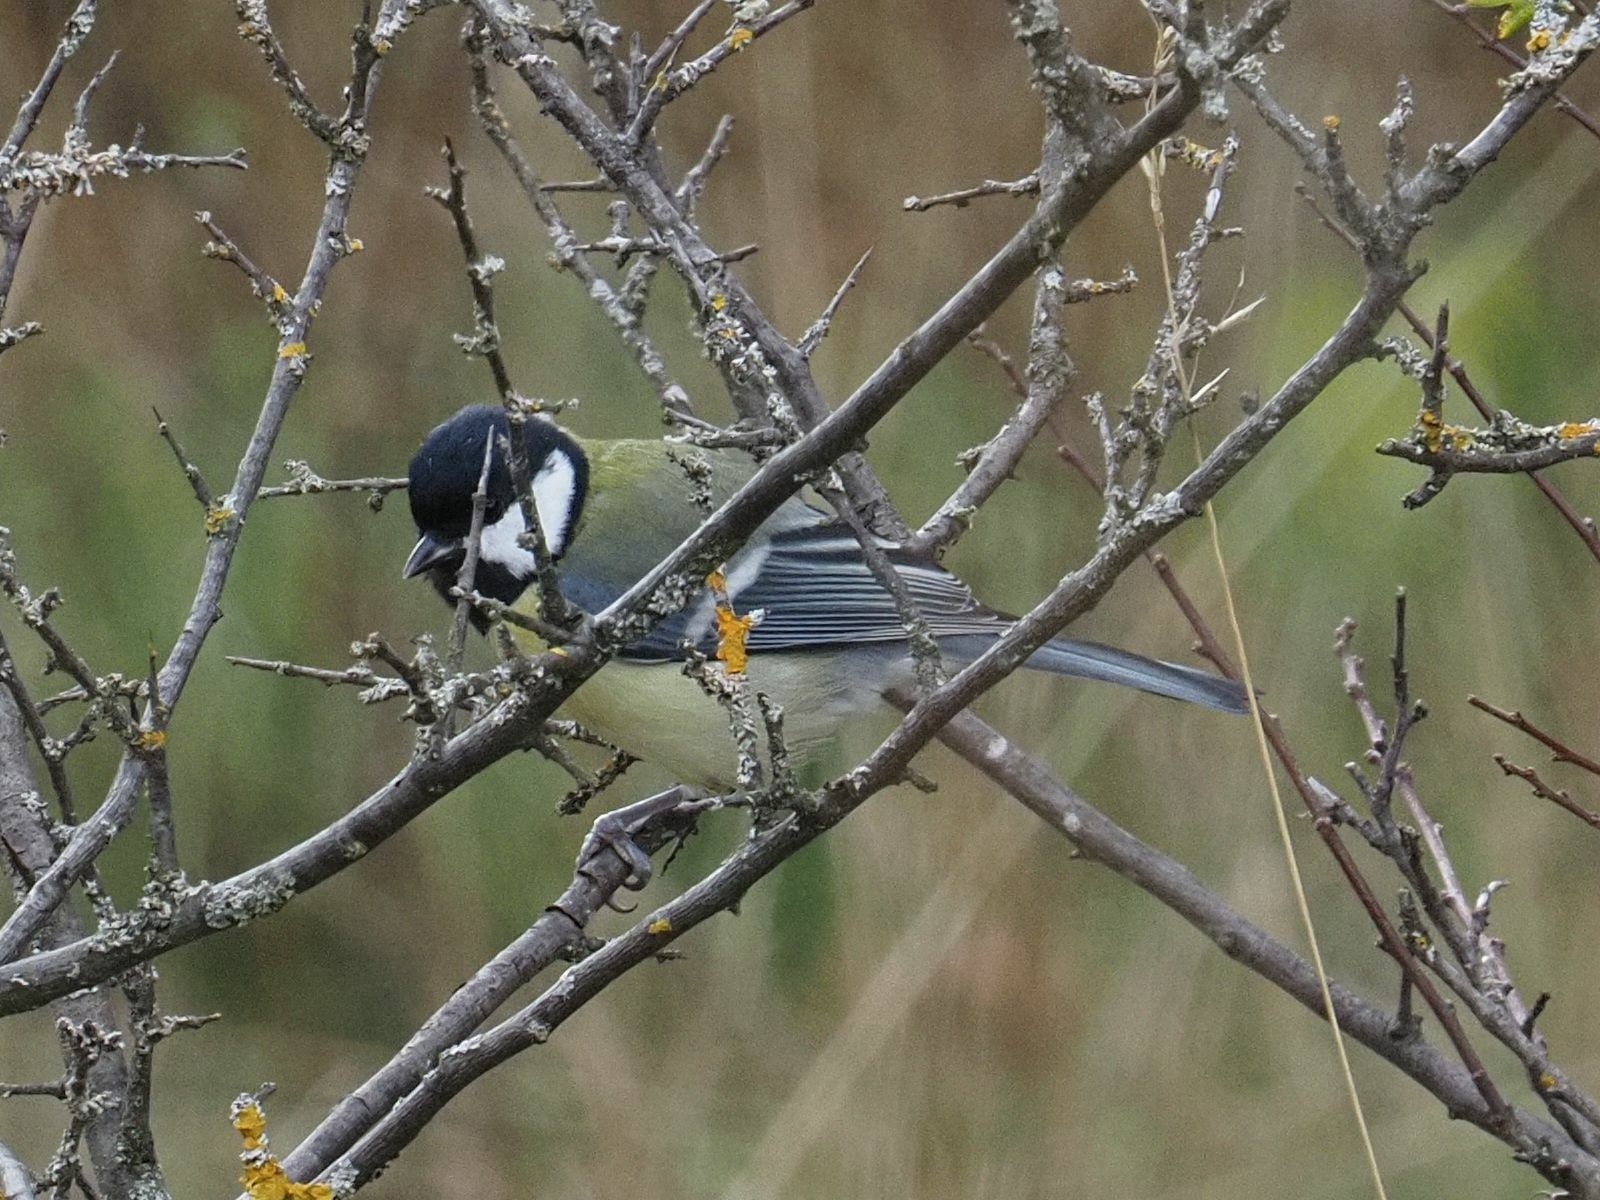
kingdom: Animalia
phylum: Chordata
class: Aves
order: Passeriformes
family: Paridae
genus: Parus
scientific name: Parus major
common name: Great tit
